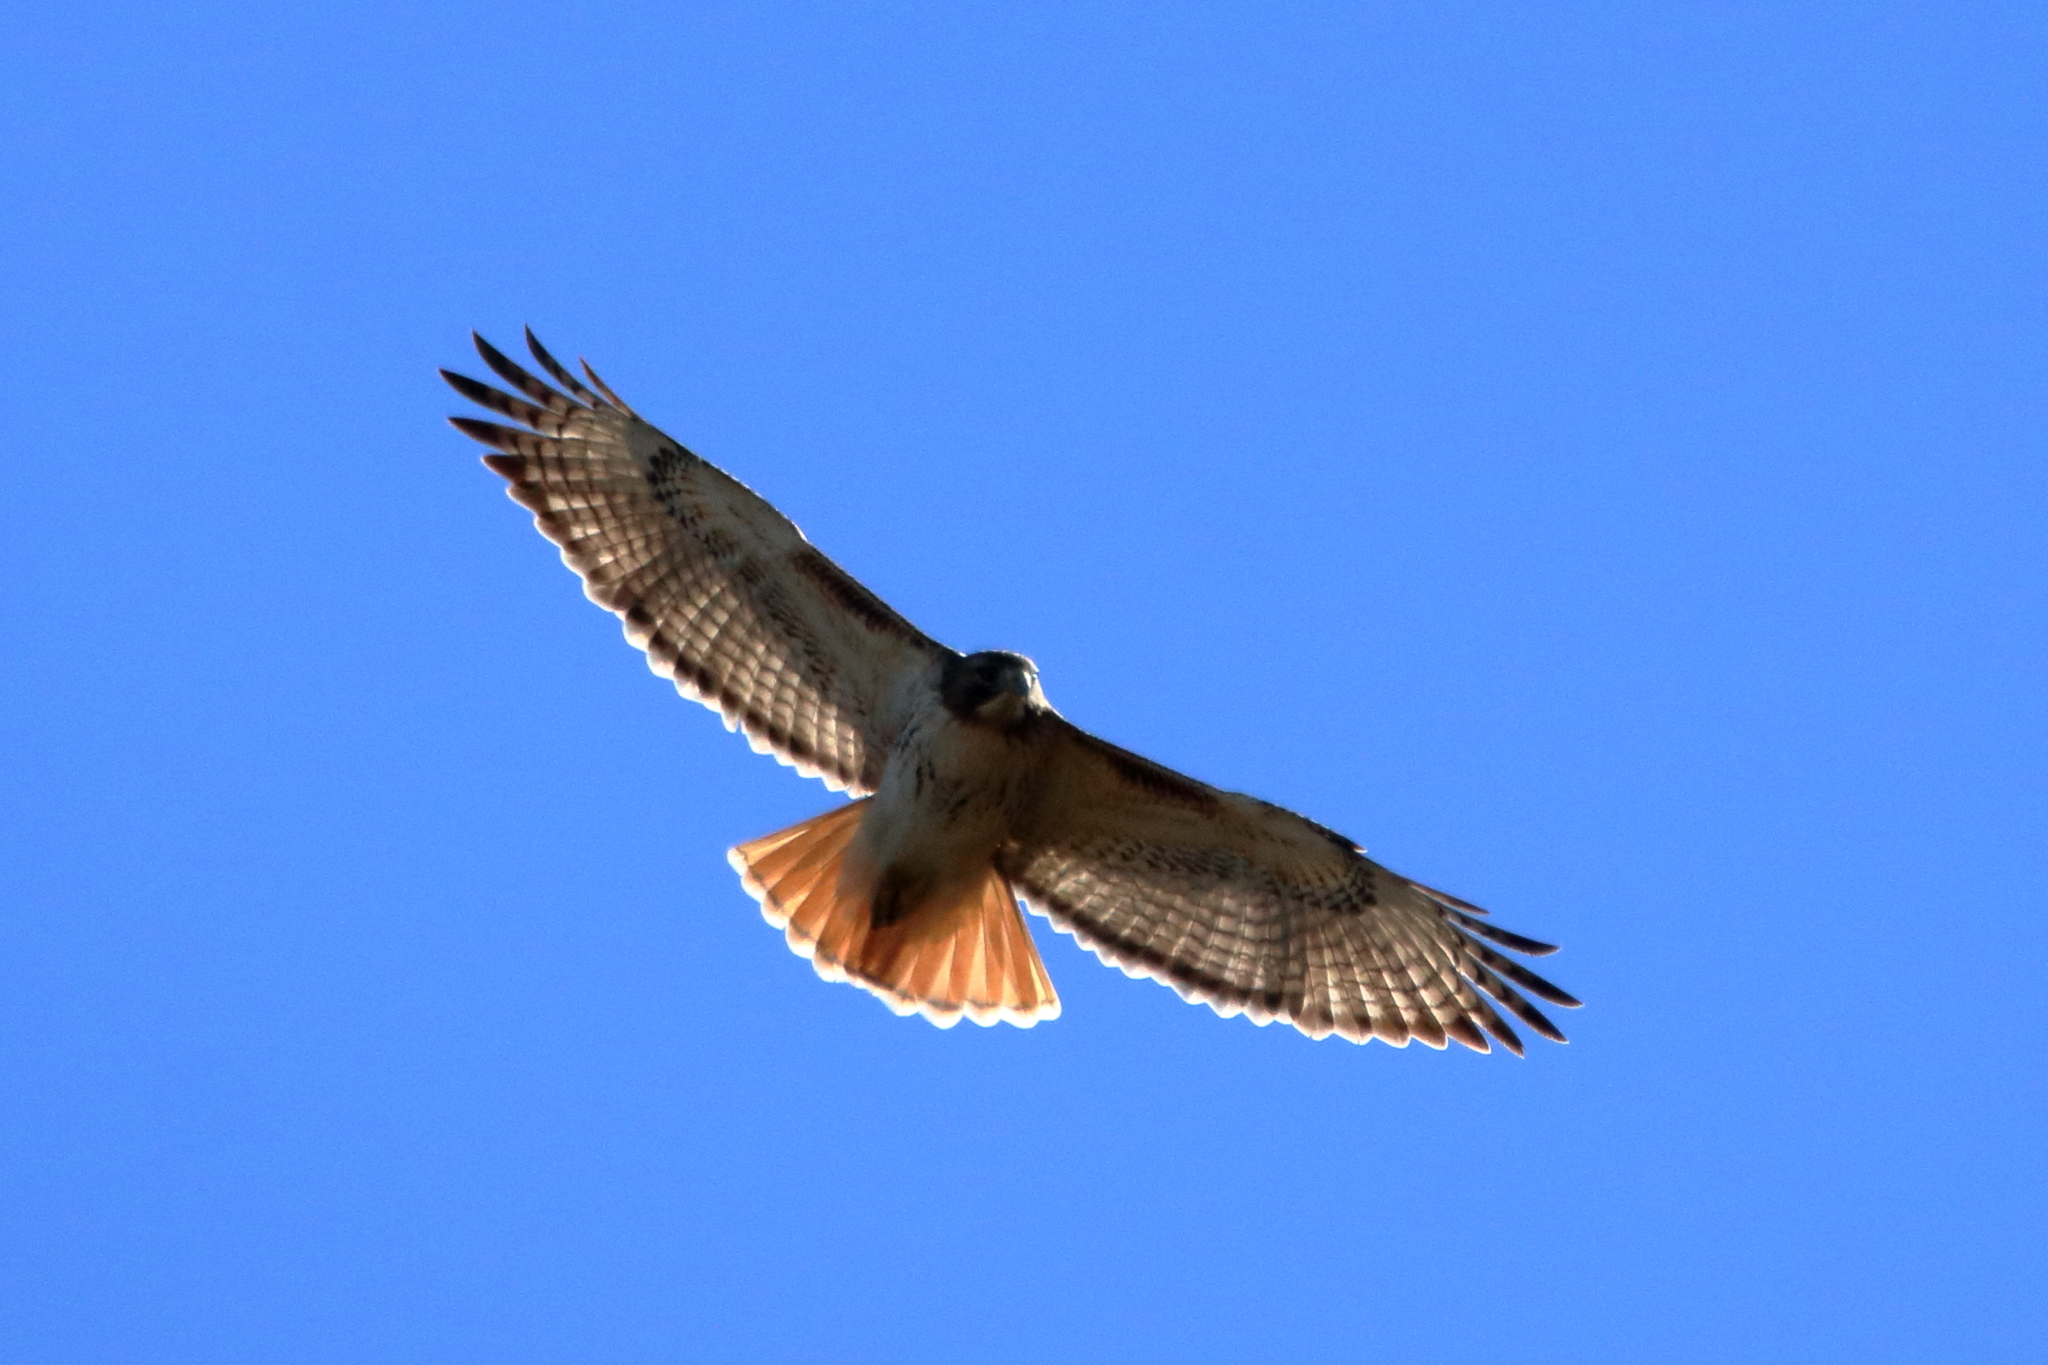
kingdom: Animalia
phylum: Chordata
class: Aves
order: Accipitriformes
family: Accipitridae
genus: Buteo
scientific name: Buteo jamaicensis
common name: Red-tailed hawk
